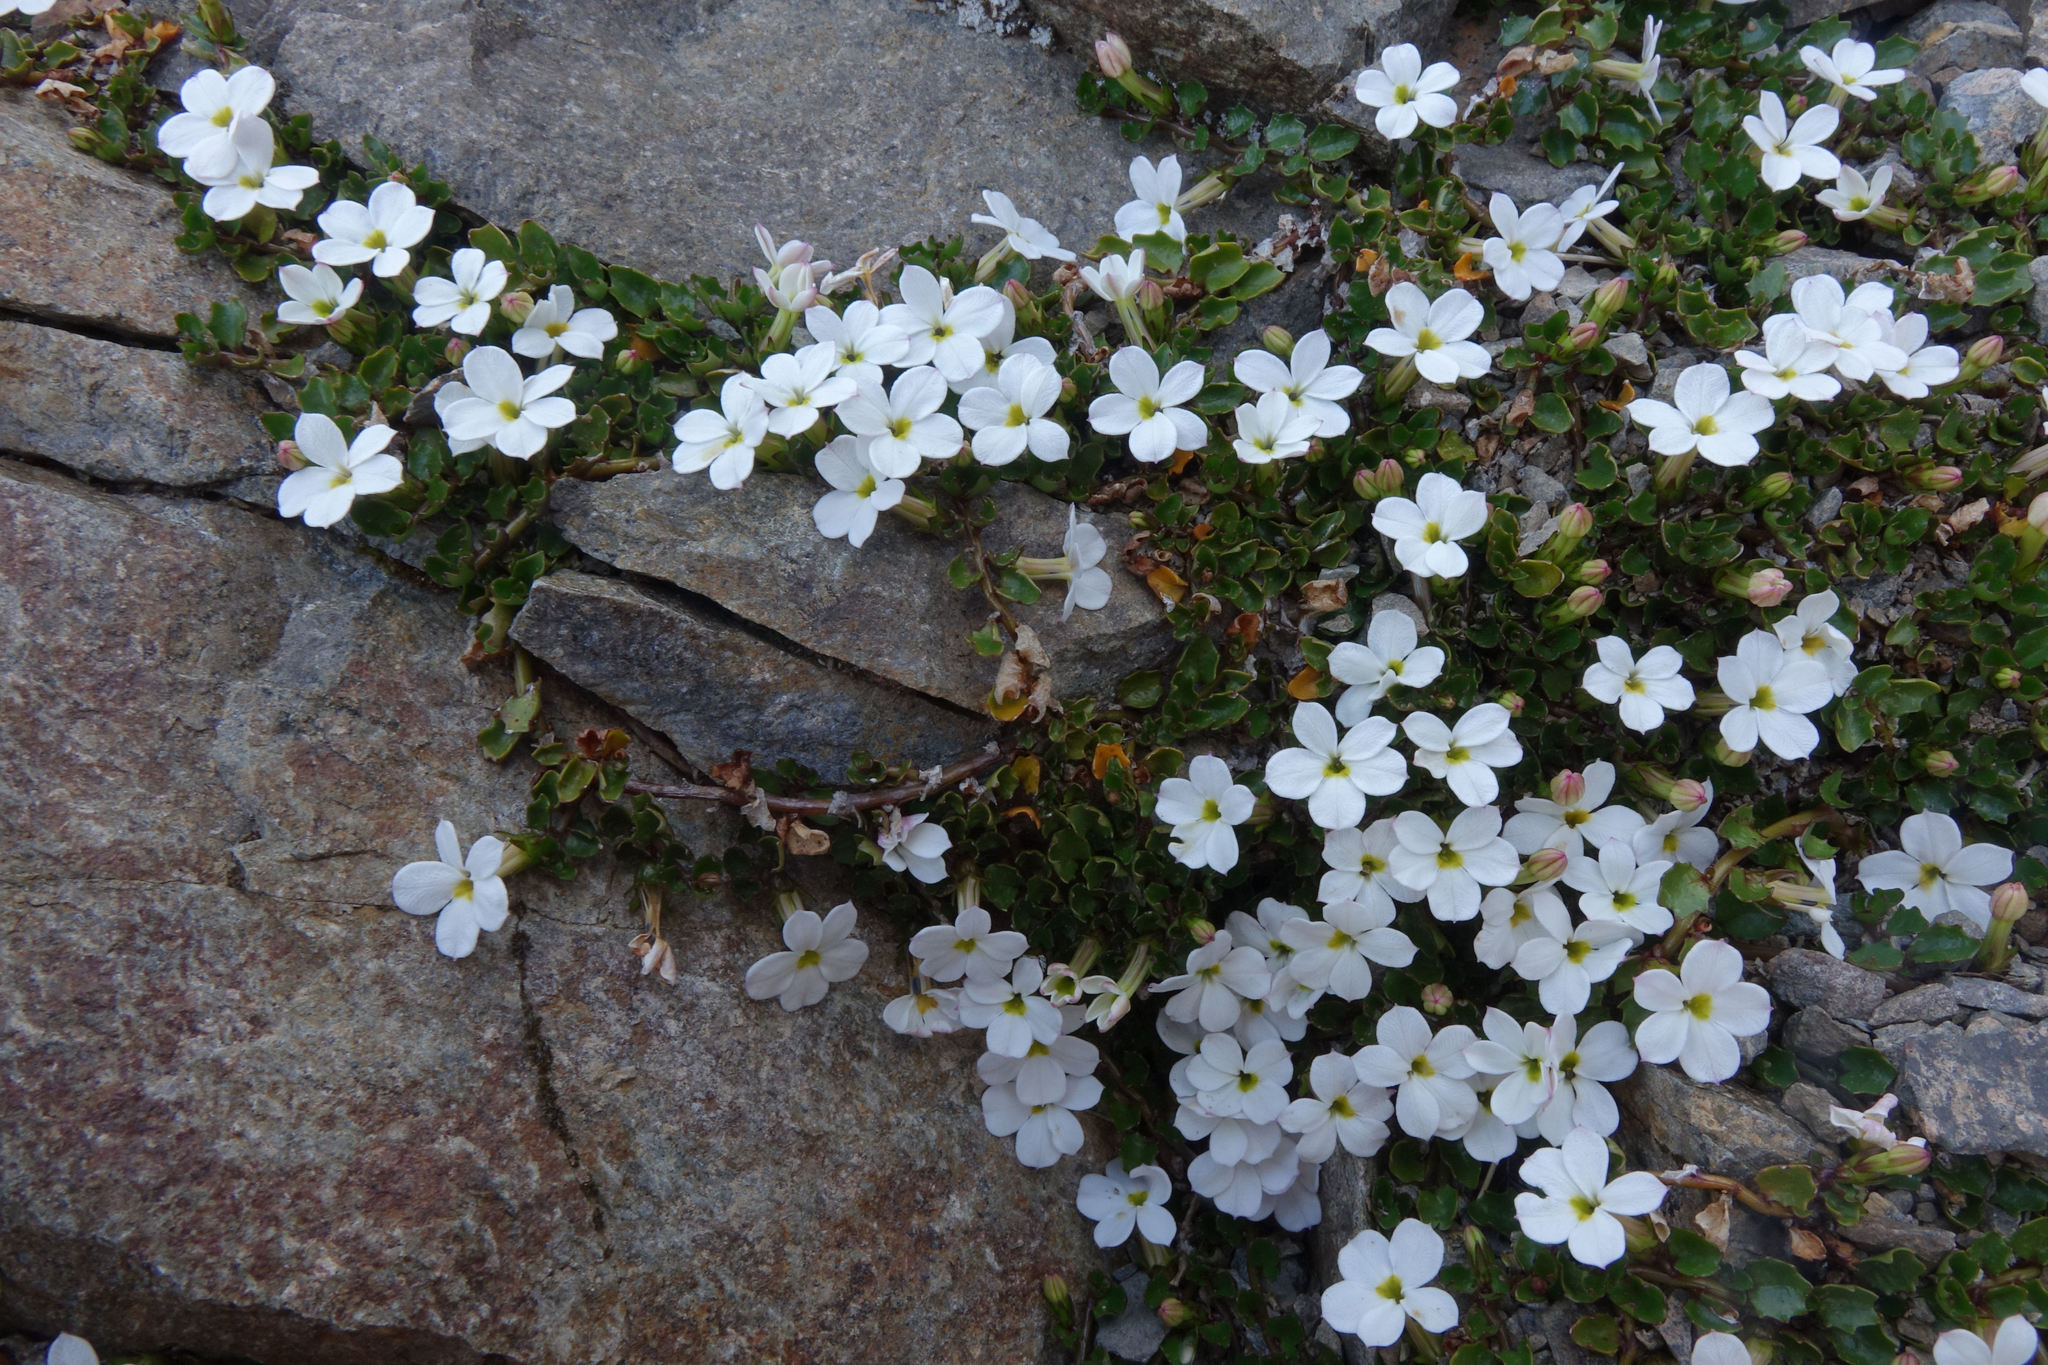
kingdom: Plantae
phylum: Tracheophyta
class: Magnoliopsida
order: Asterales
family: Campanulaceae
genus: Lobelia
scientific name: Lobelia glaberrima
